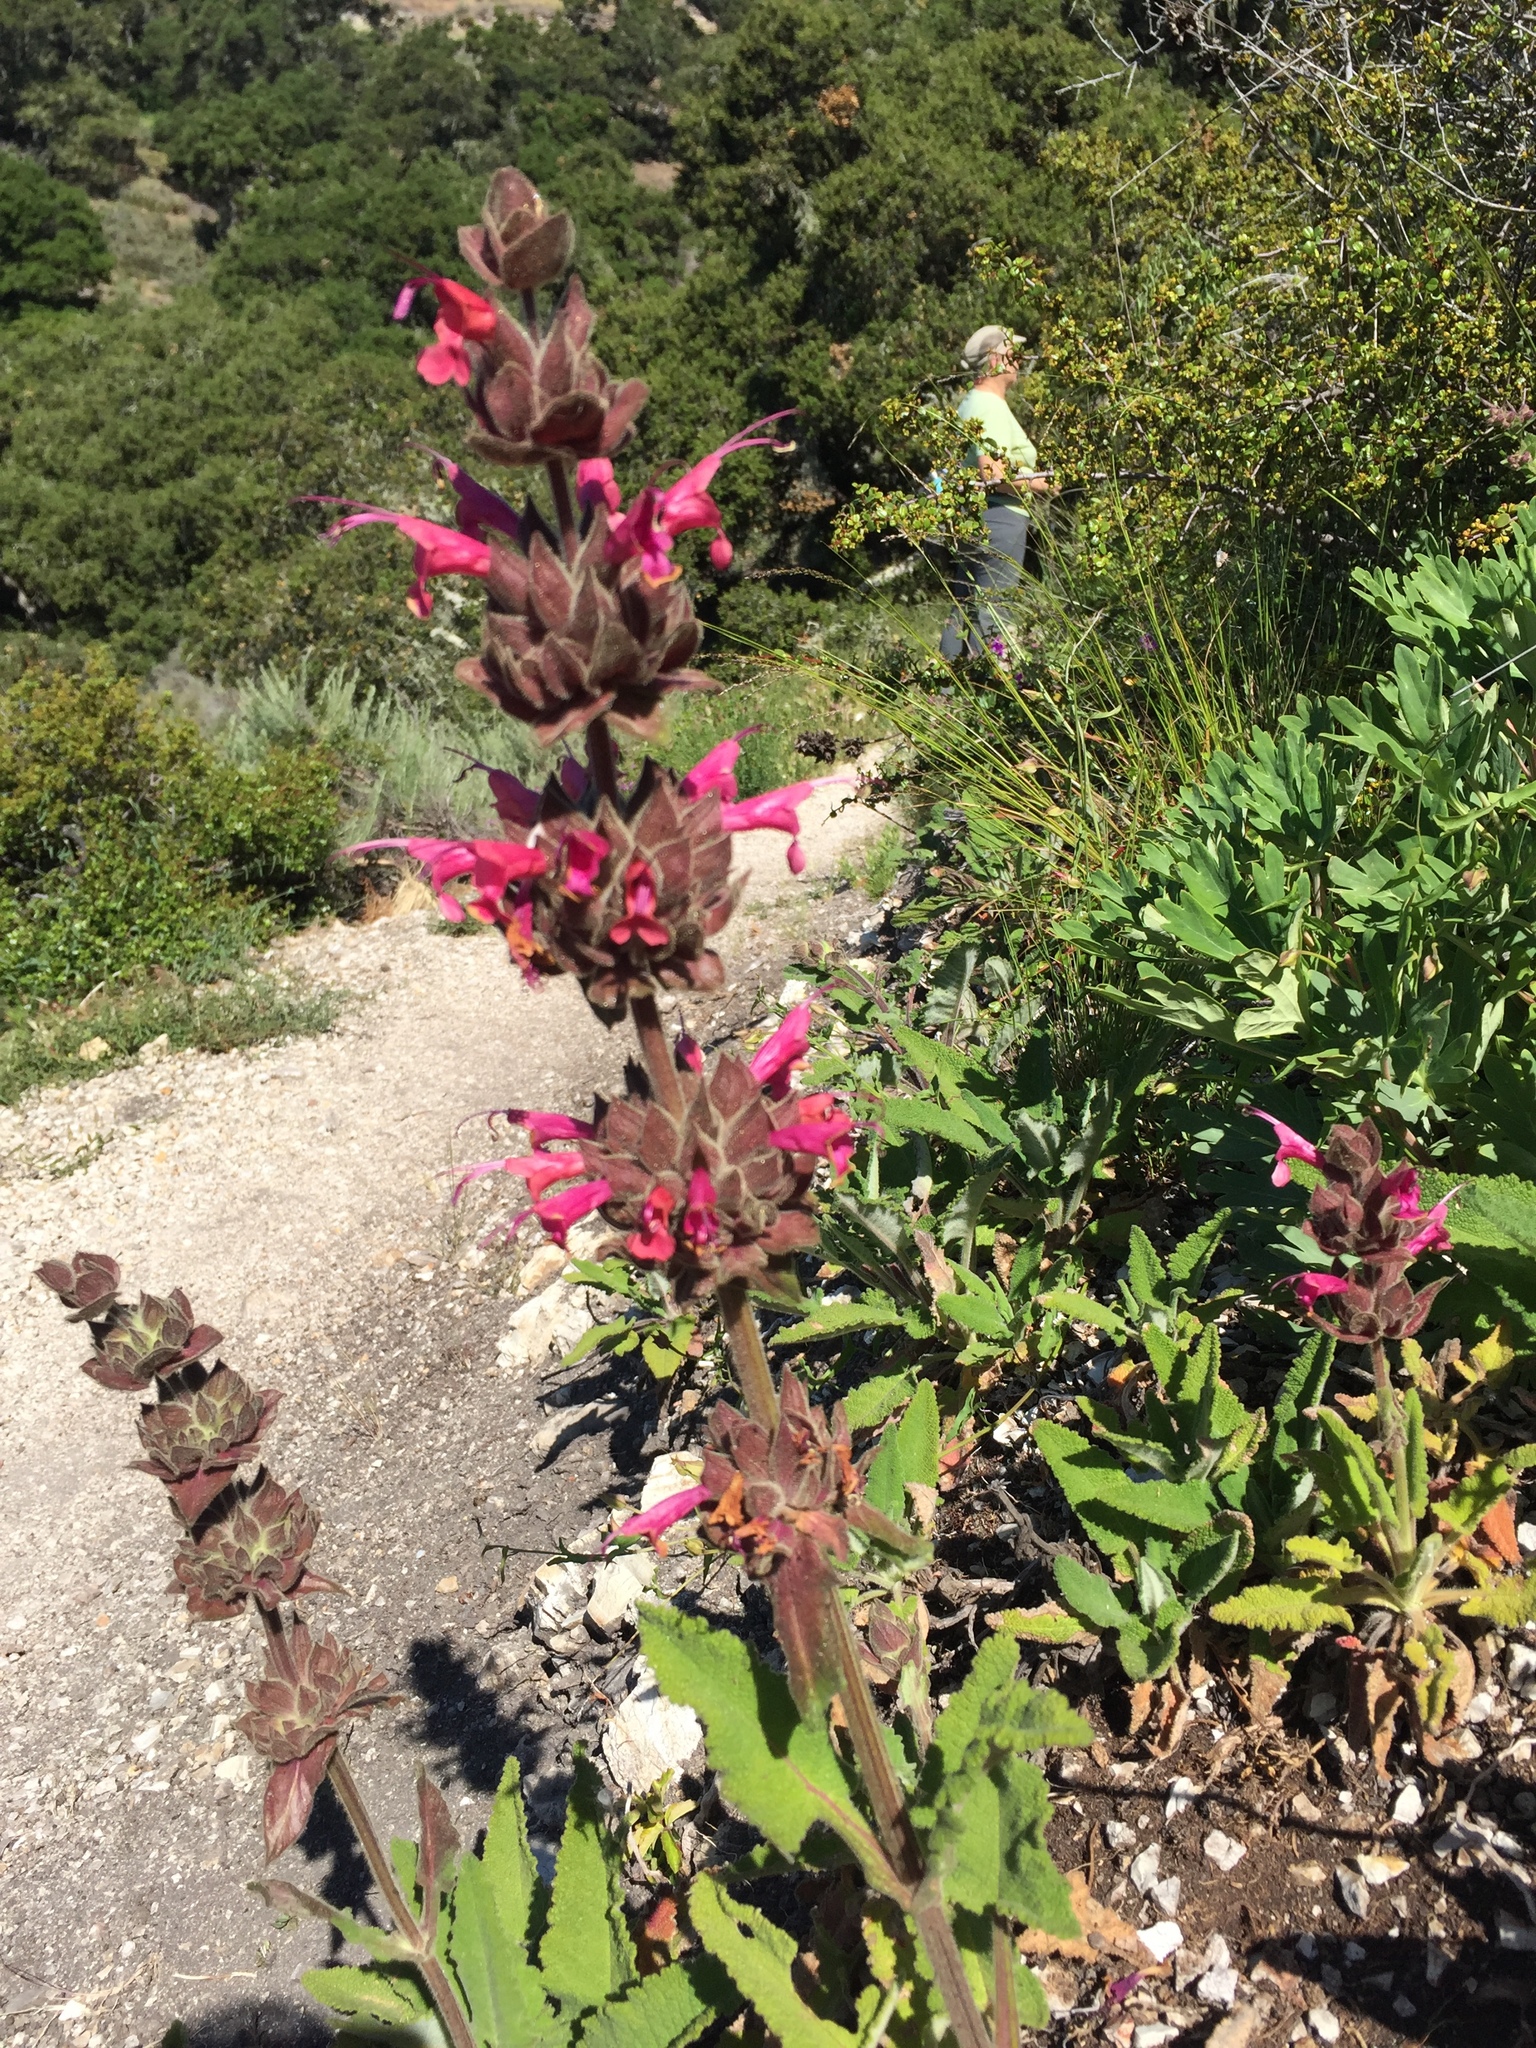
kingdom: Plantae
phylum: Tracheophyta
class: Magnoliopsida
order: Lamiales
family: Lamiaceae
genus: Salvia
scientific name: Salvia spathacea
